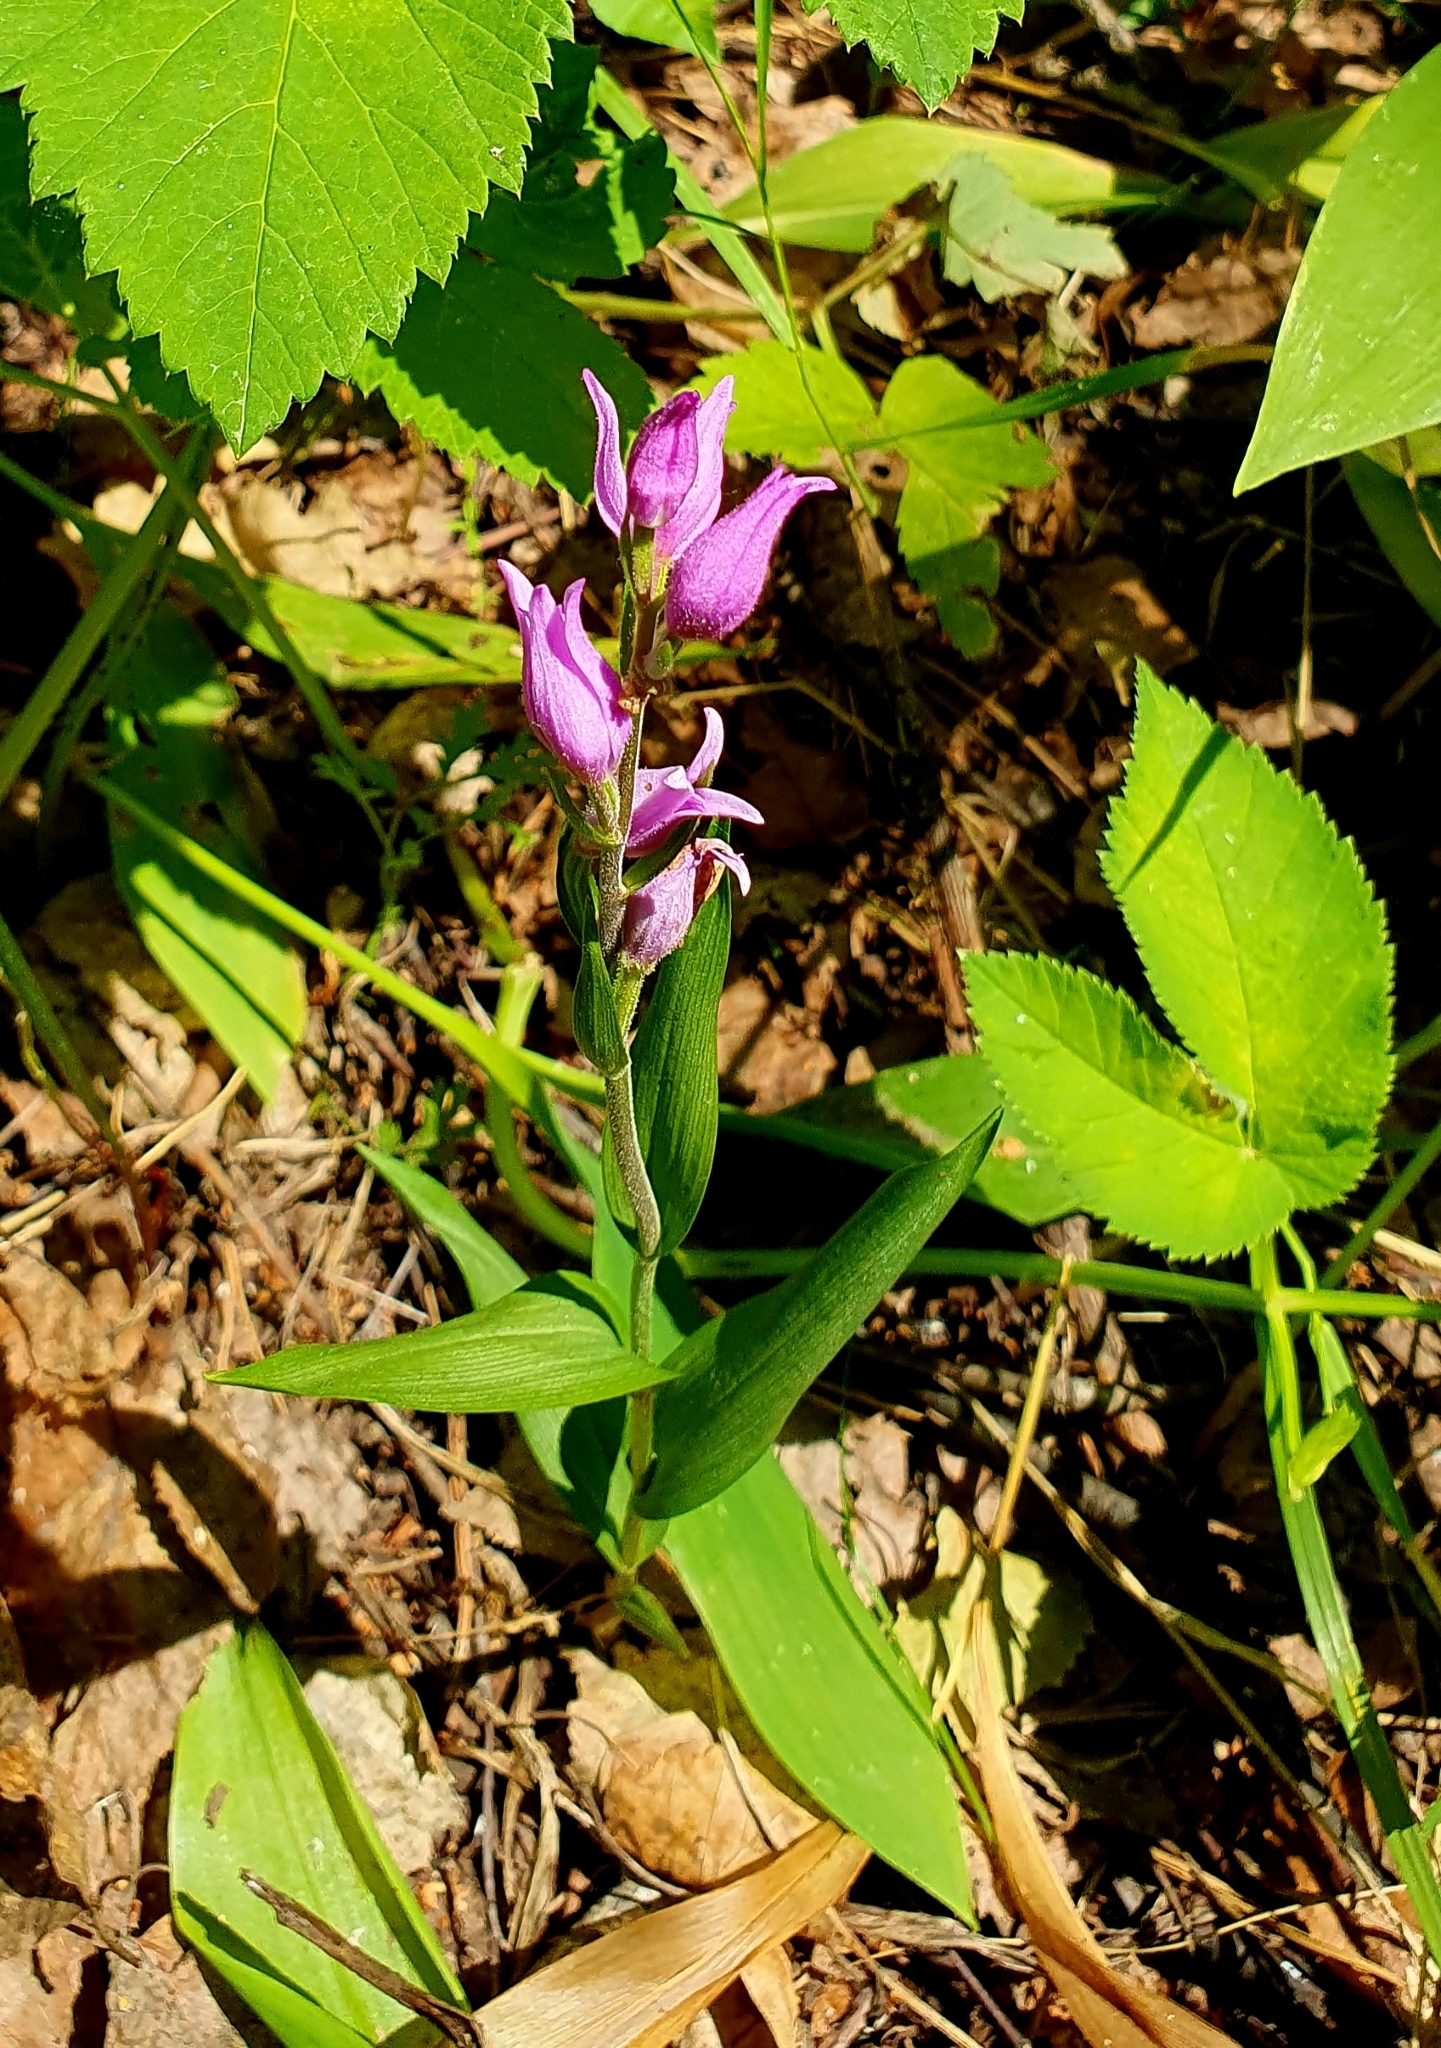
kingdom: Plantae
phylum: Tracheophyta
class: Liliopsida
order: Asparagales
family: Orchidaceae
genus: Cephalanthera
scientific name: Cephalanthera rubra
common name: Red helleborine
